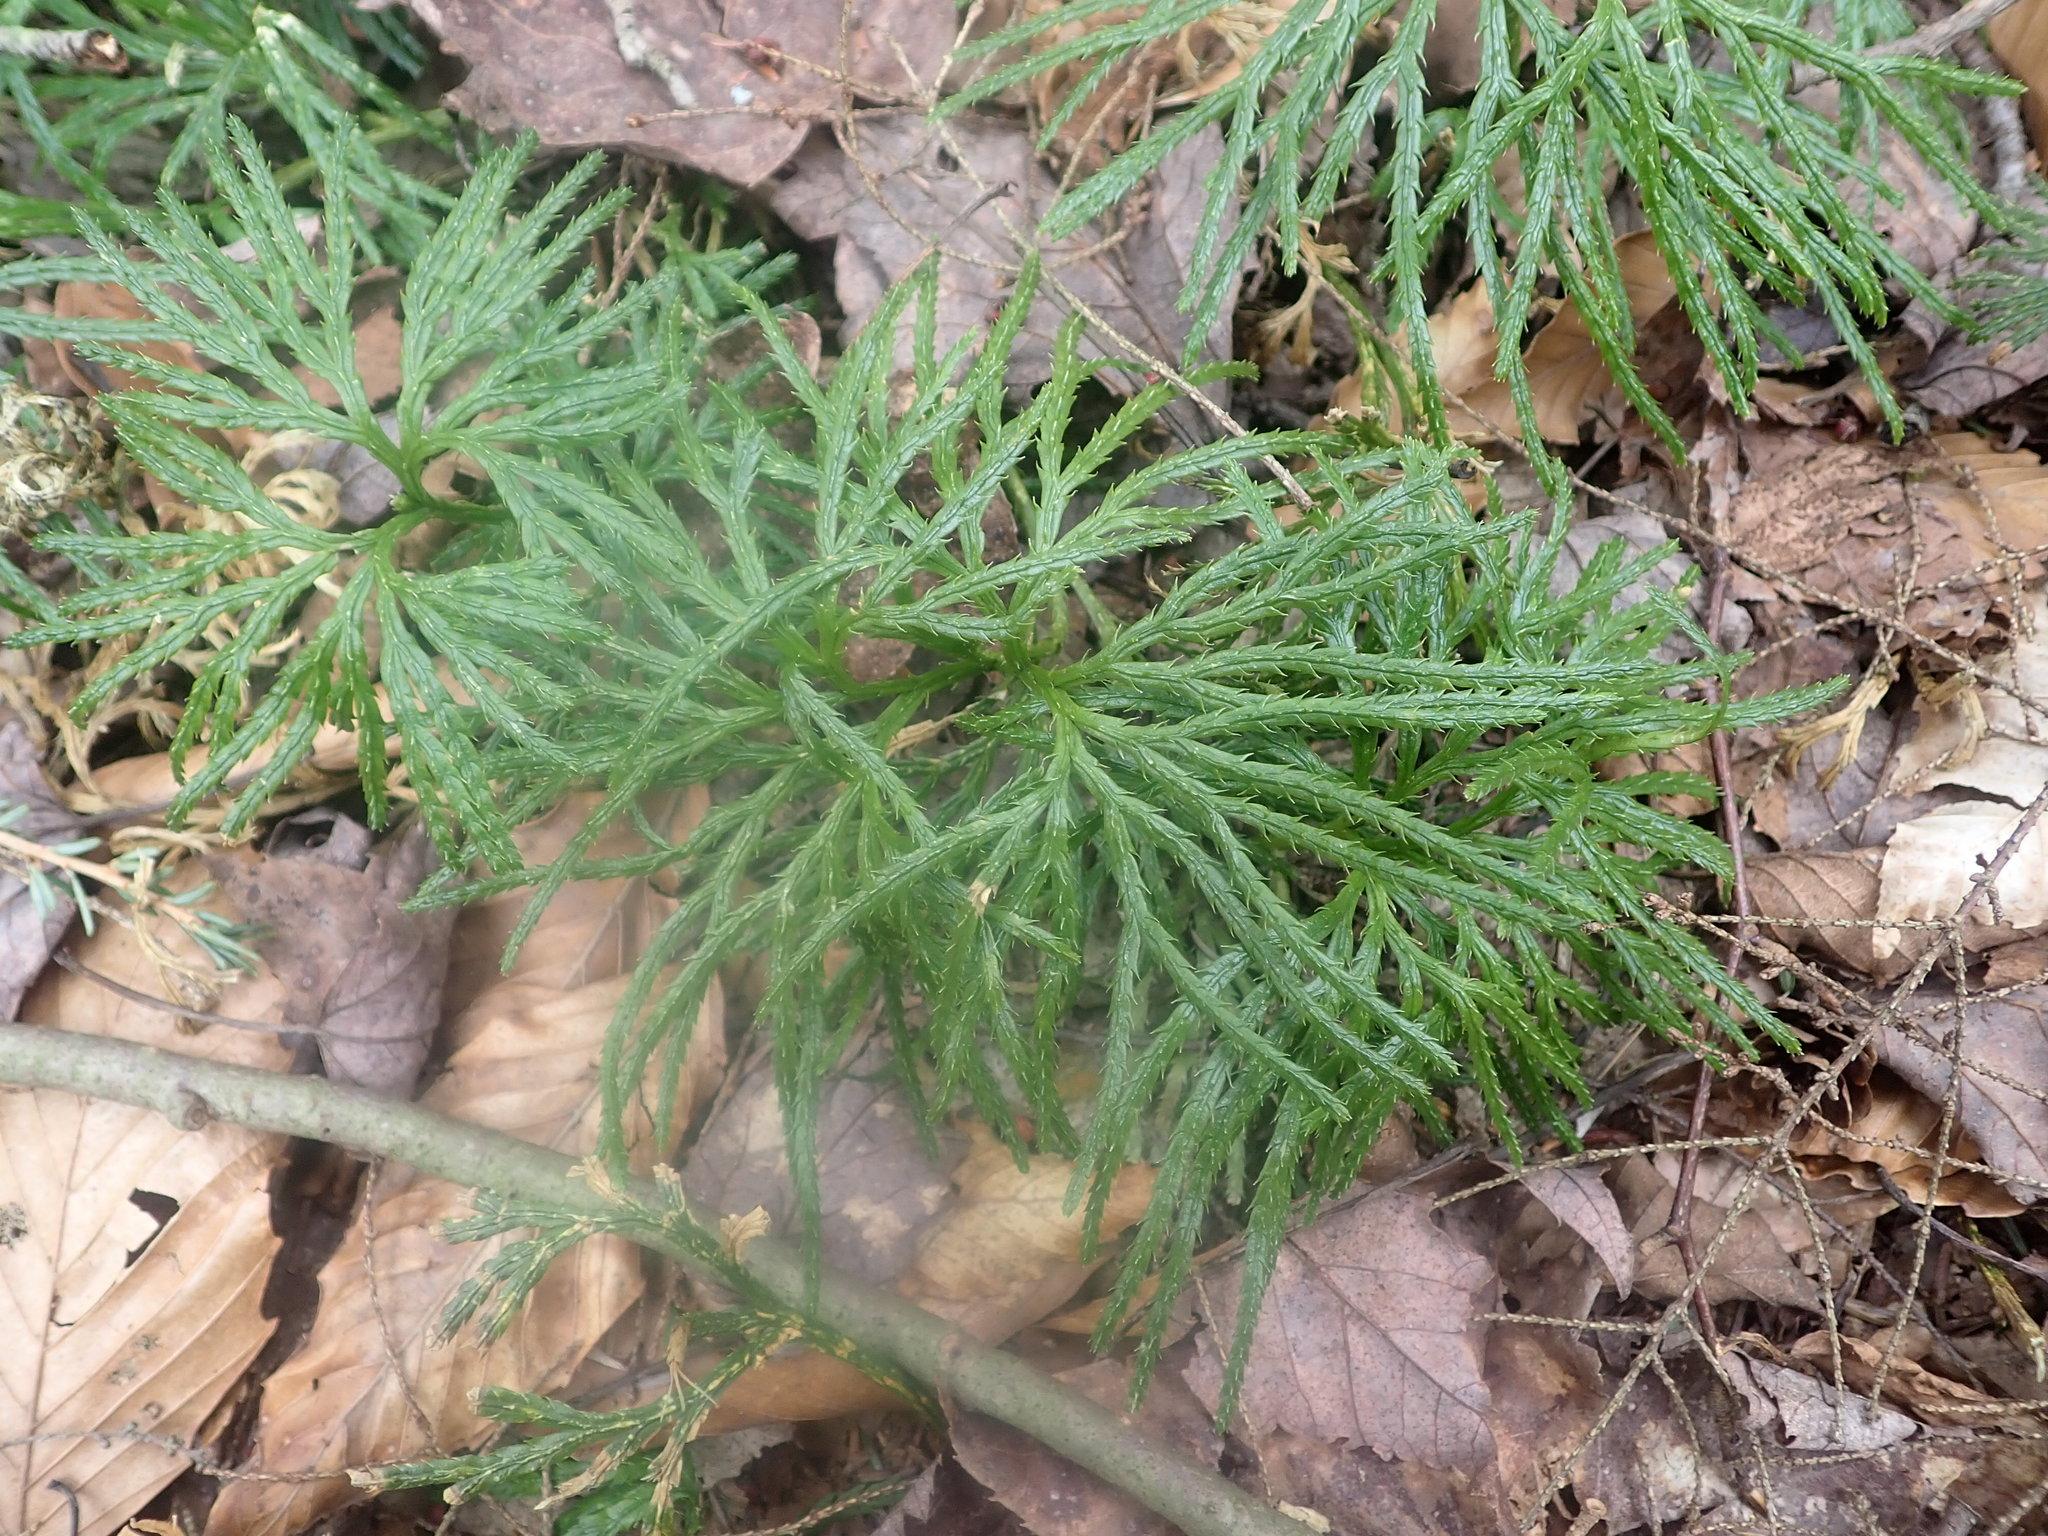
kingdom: Plantae
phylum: Tracheophyta
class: Lycopodiopsida
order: Lycopodiales
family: Lycopodiaceae
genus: Diphasiastrum
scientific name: Diphasiastrum digitatum
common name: Southern running-pine
